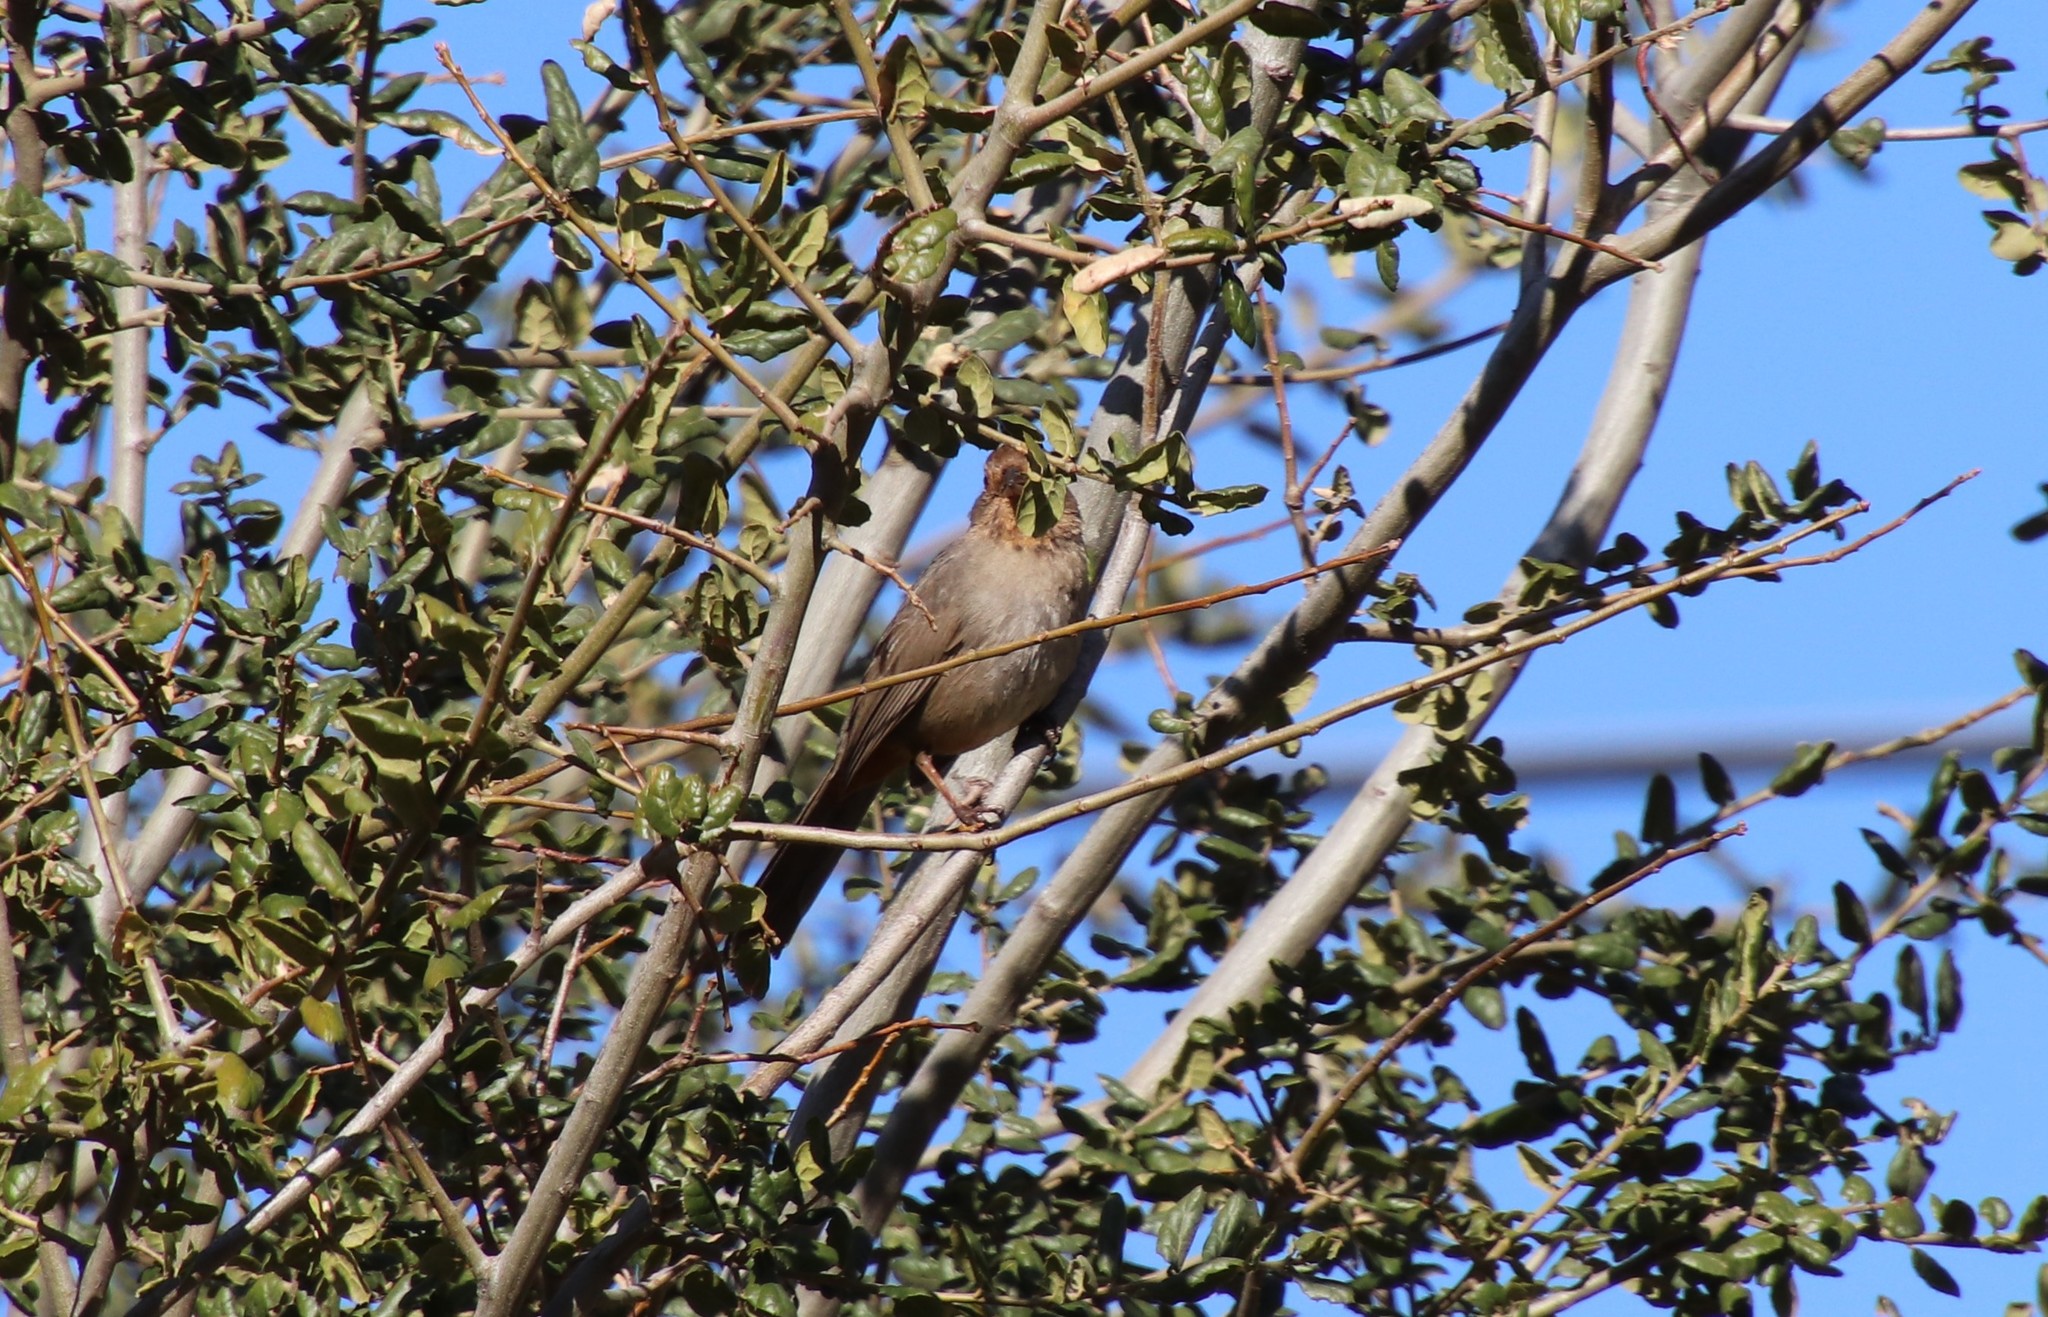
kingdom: Animalia
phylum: Chordata
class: Aves
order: Passeriformes
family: Passerellidae
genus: Melozone
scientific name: Melozone crissalis
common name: California towhee
